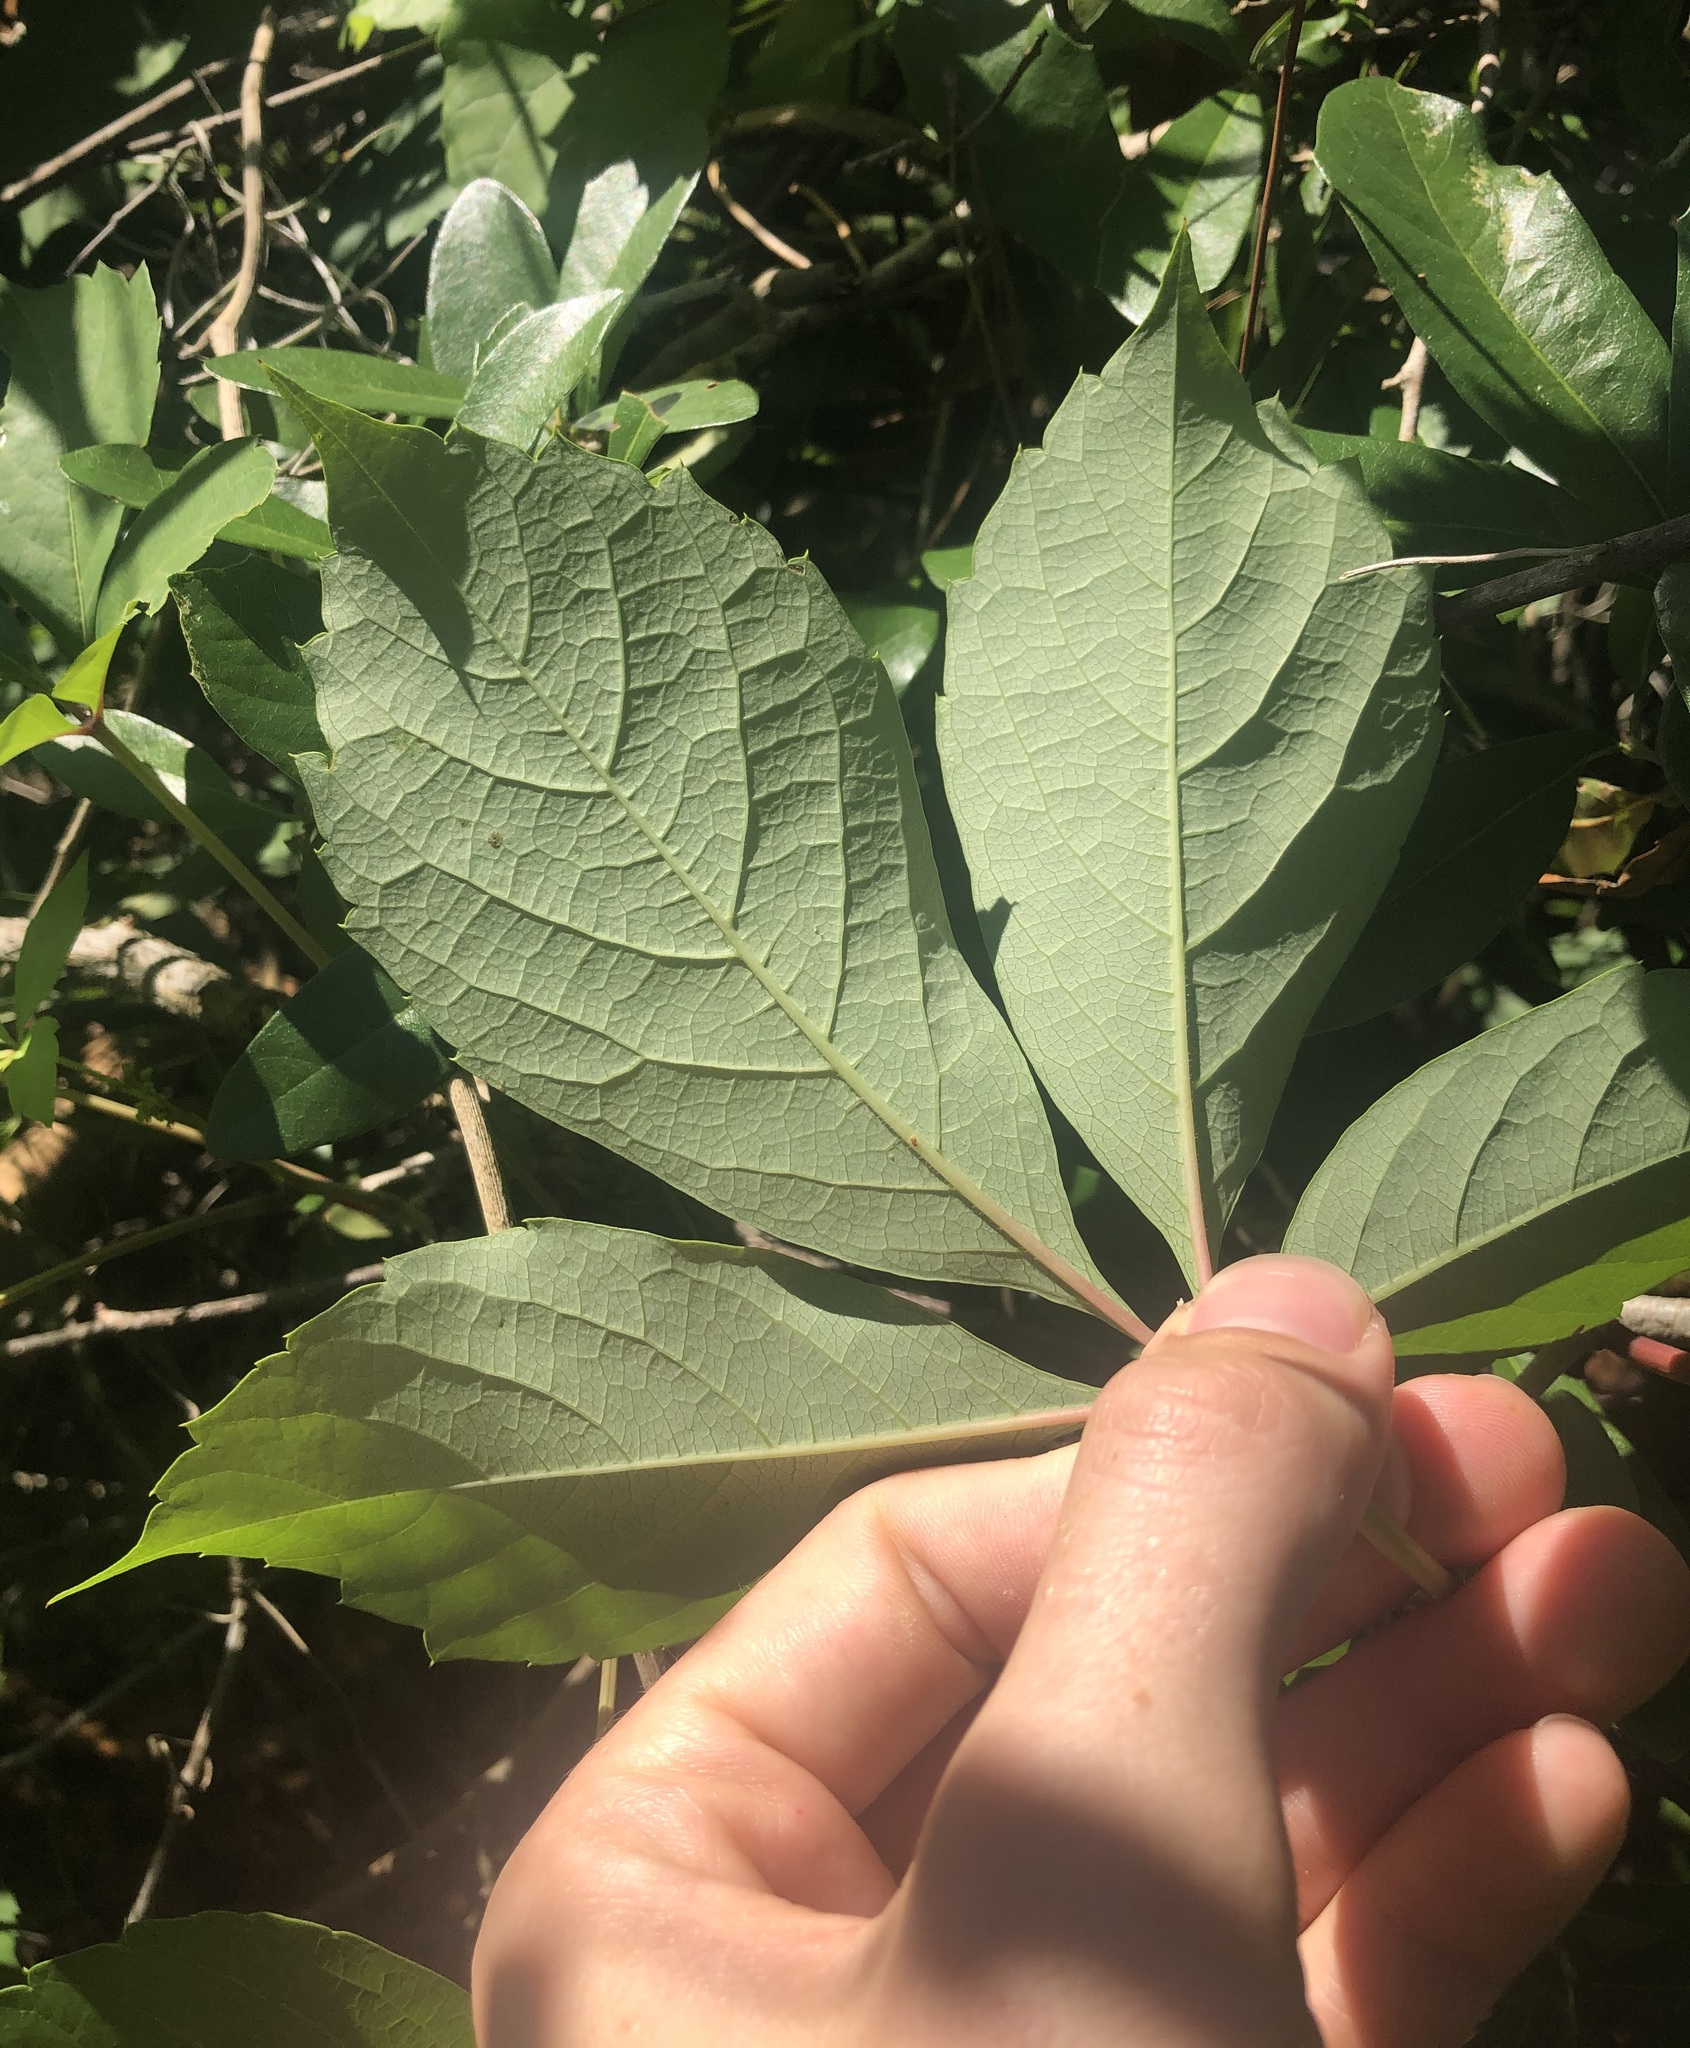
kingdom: Plantae
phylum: Tracheophyta
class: Magnoliopsida
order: Vitales
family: Vitaceae
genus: Parthenocissus
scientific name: Parthenocissus quinquefolia
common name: Virginia-creeper
